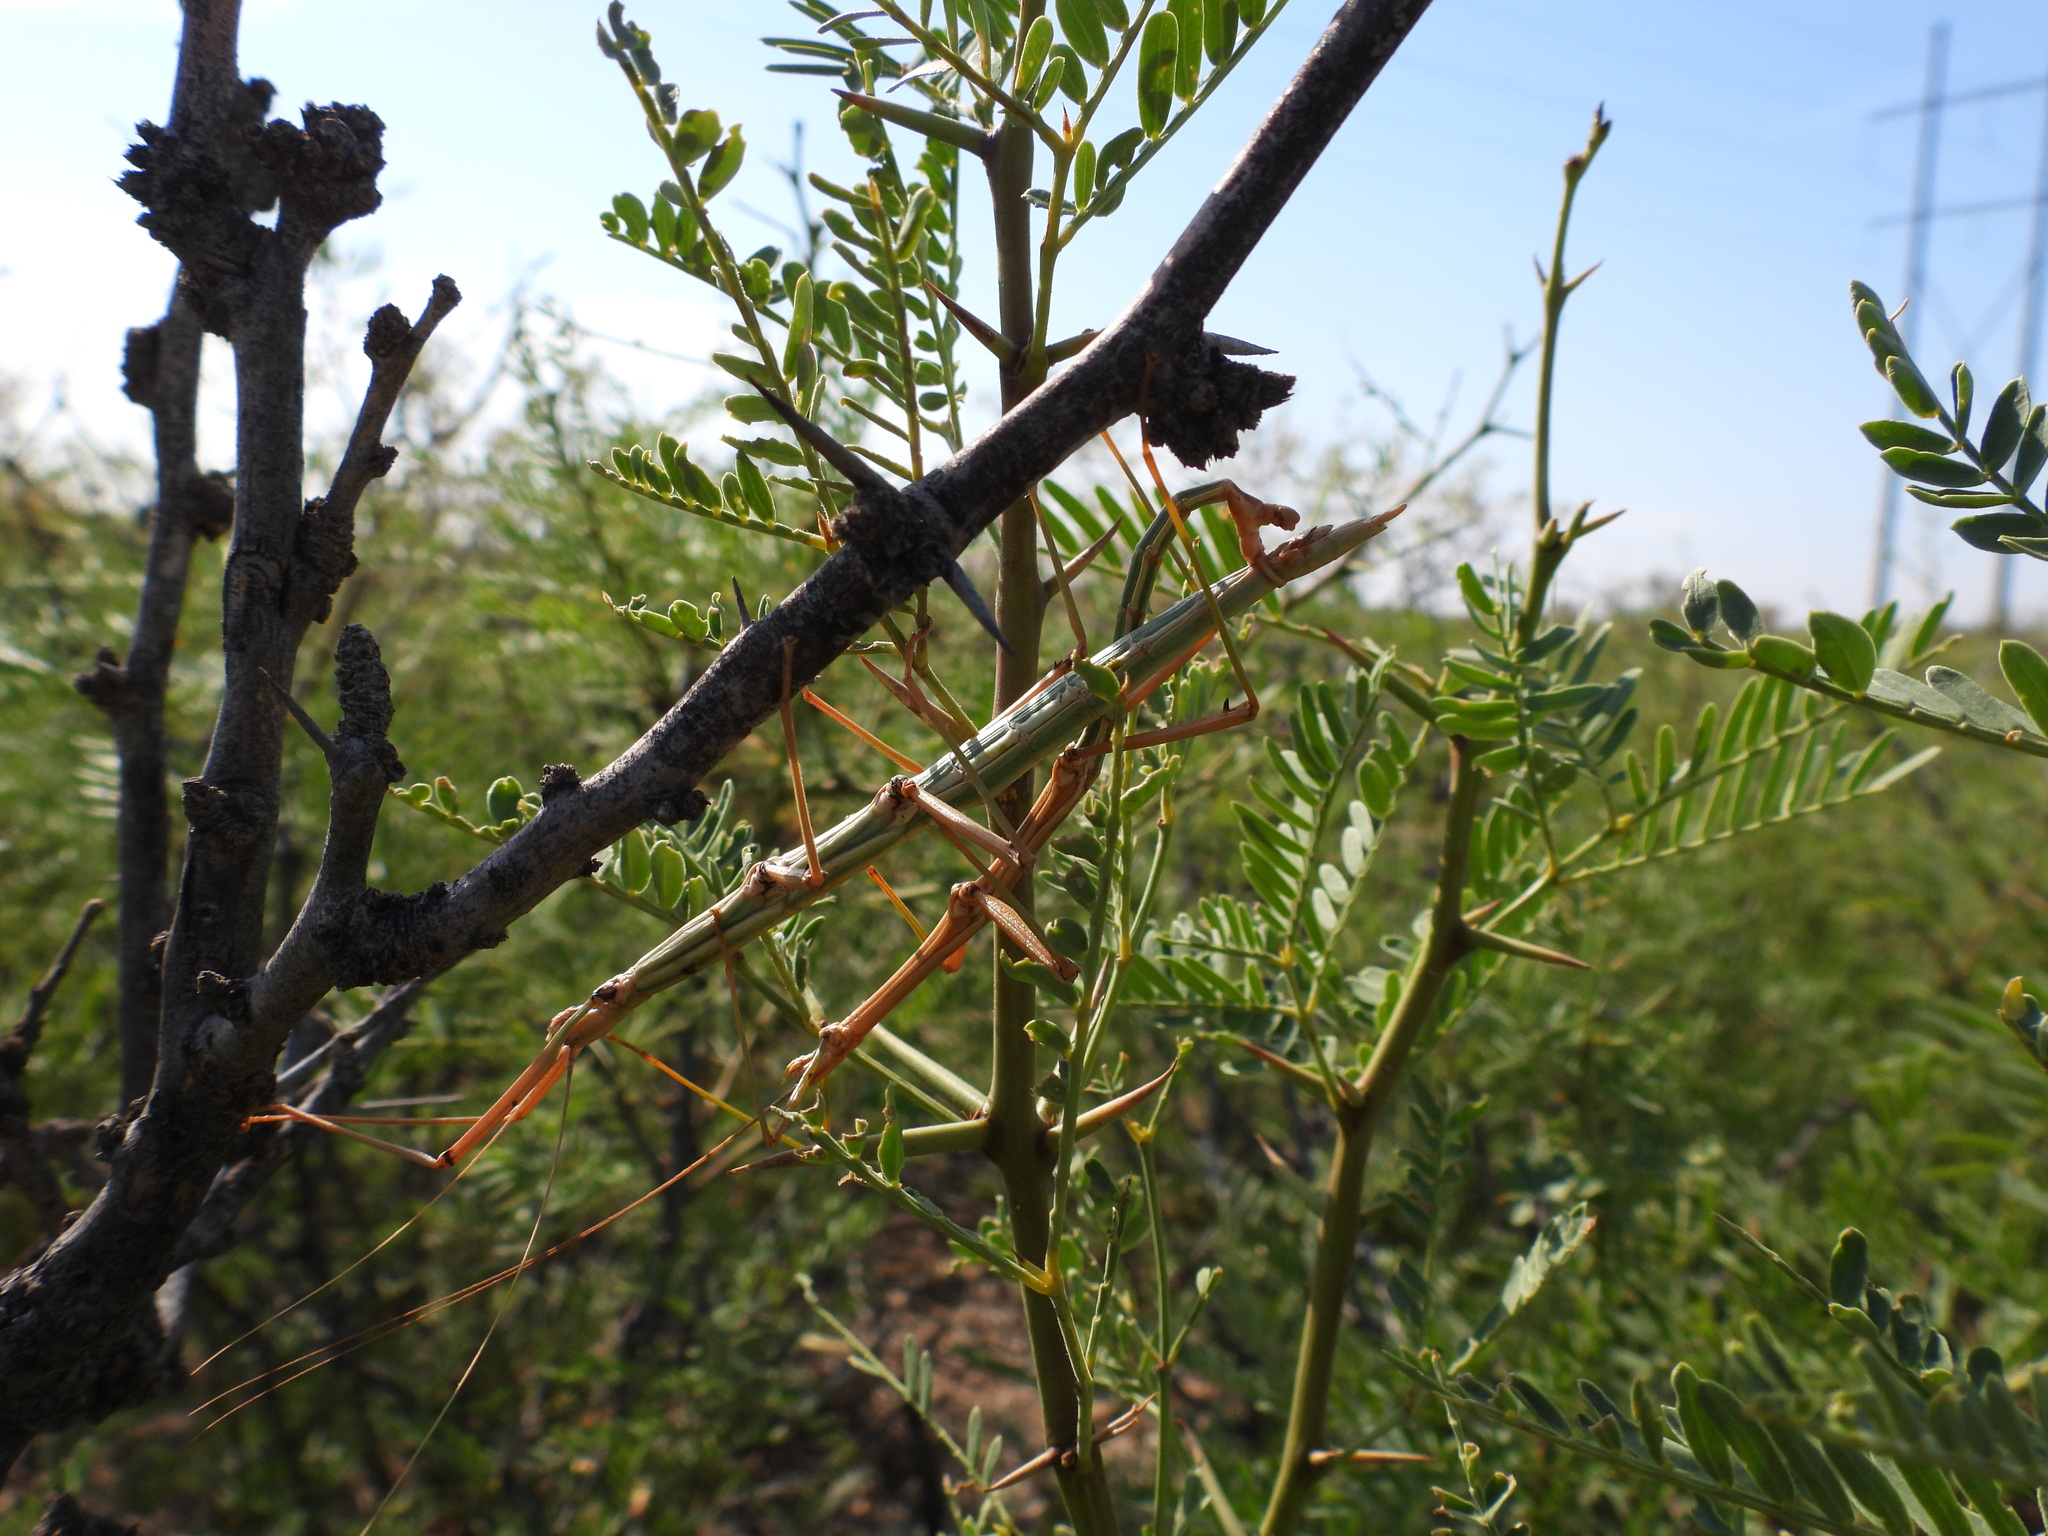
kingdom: Animalia
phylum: Arthropoda
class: Insecta
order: Phasmida
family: Diapheromeridae
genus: Diapheromera
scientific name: Diapheromera velii
